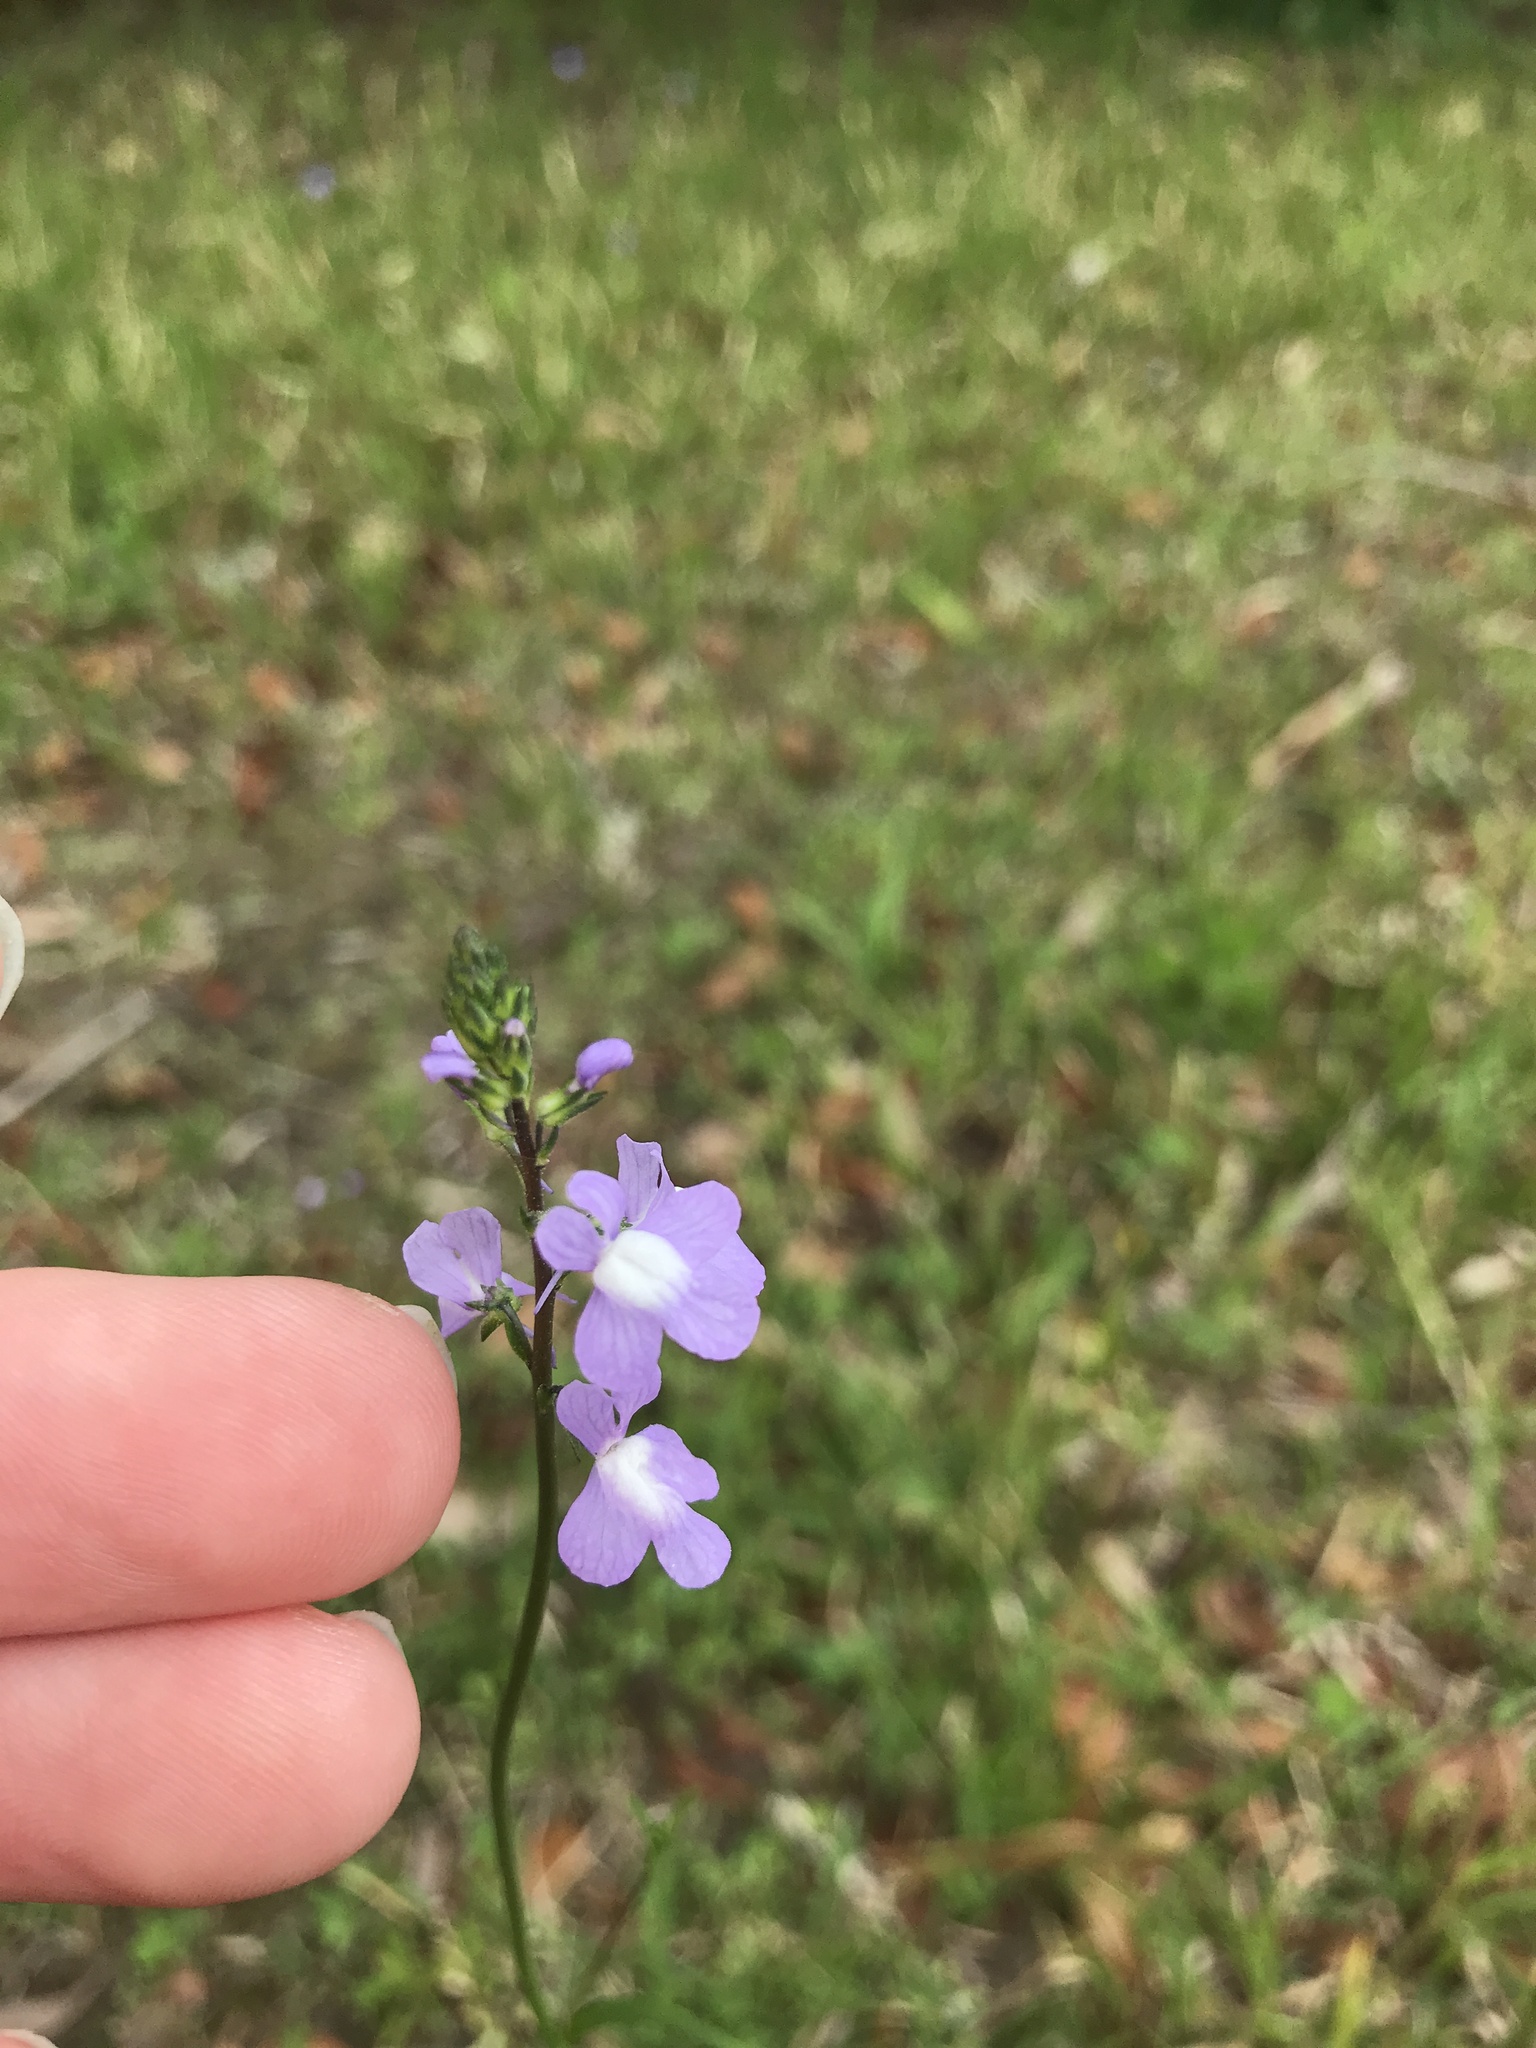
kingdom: Plantae
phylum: Tracheophyta
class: Magnoliopsida
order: Lamiales
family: Plantaginaceae
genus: Nuttallanthus
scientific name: Nuttallanthus canadensis
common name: Blue toadflax
